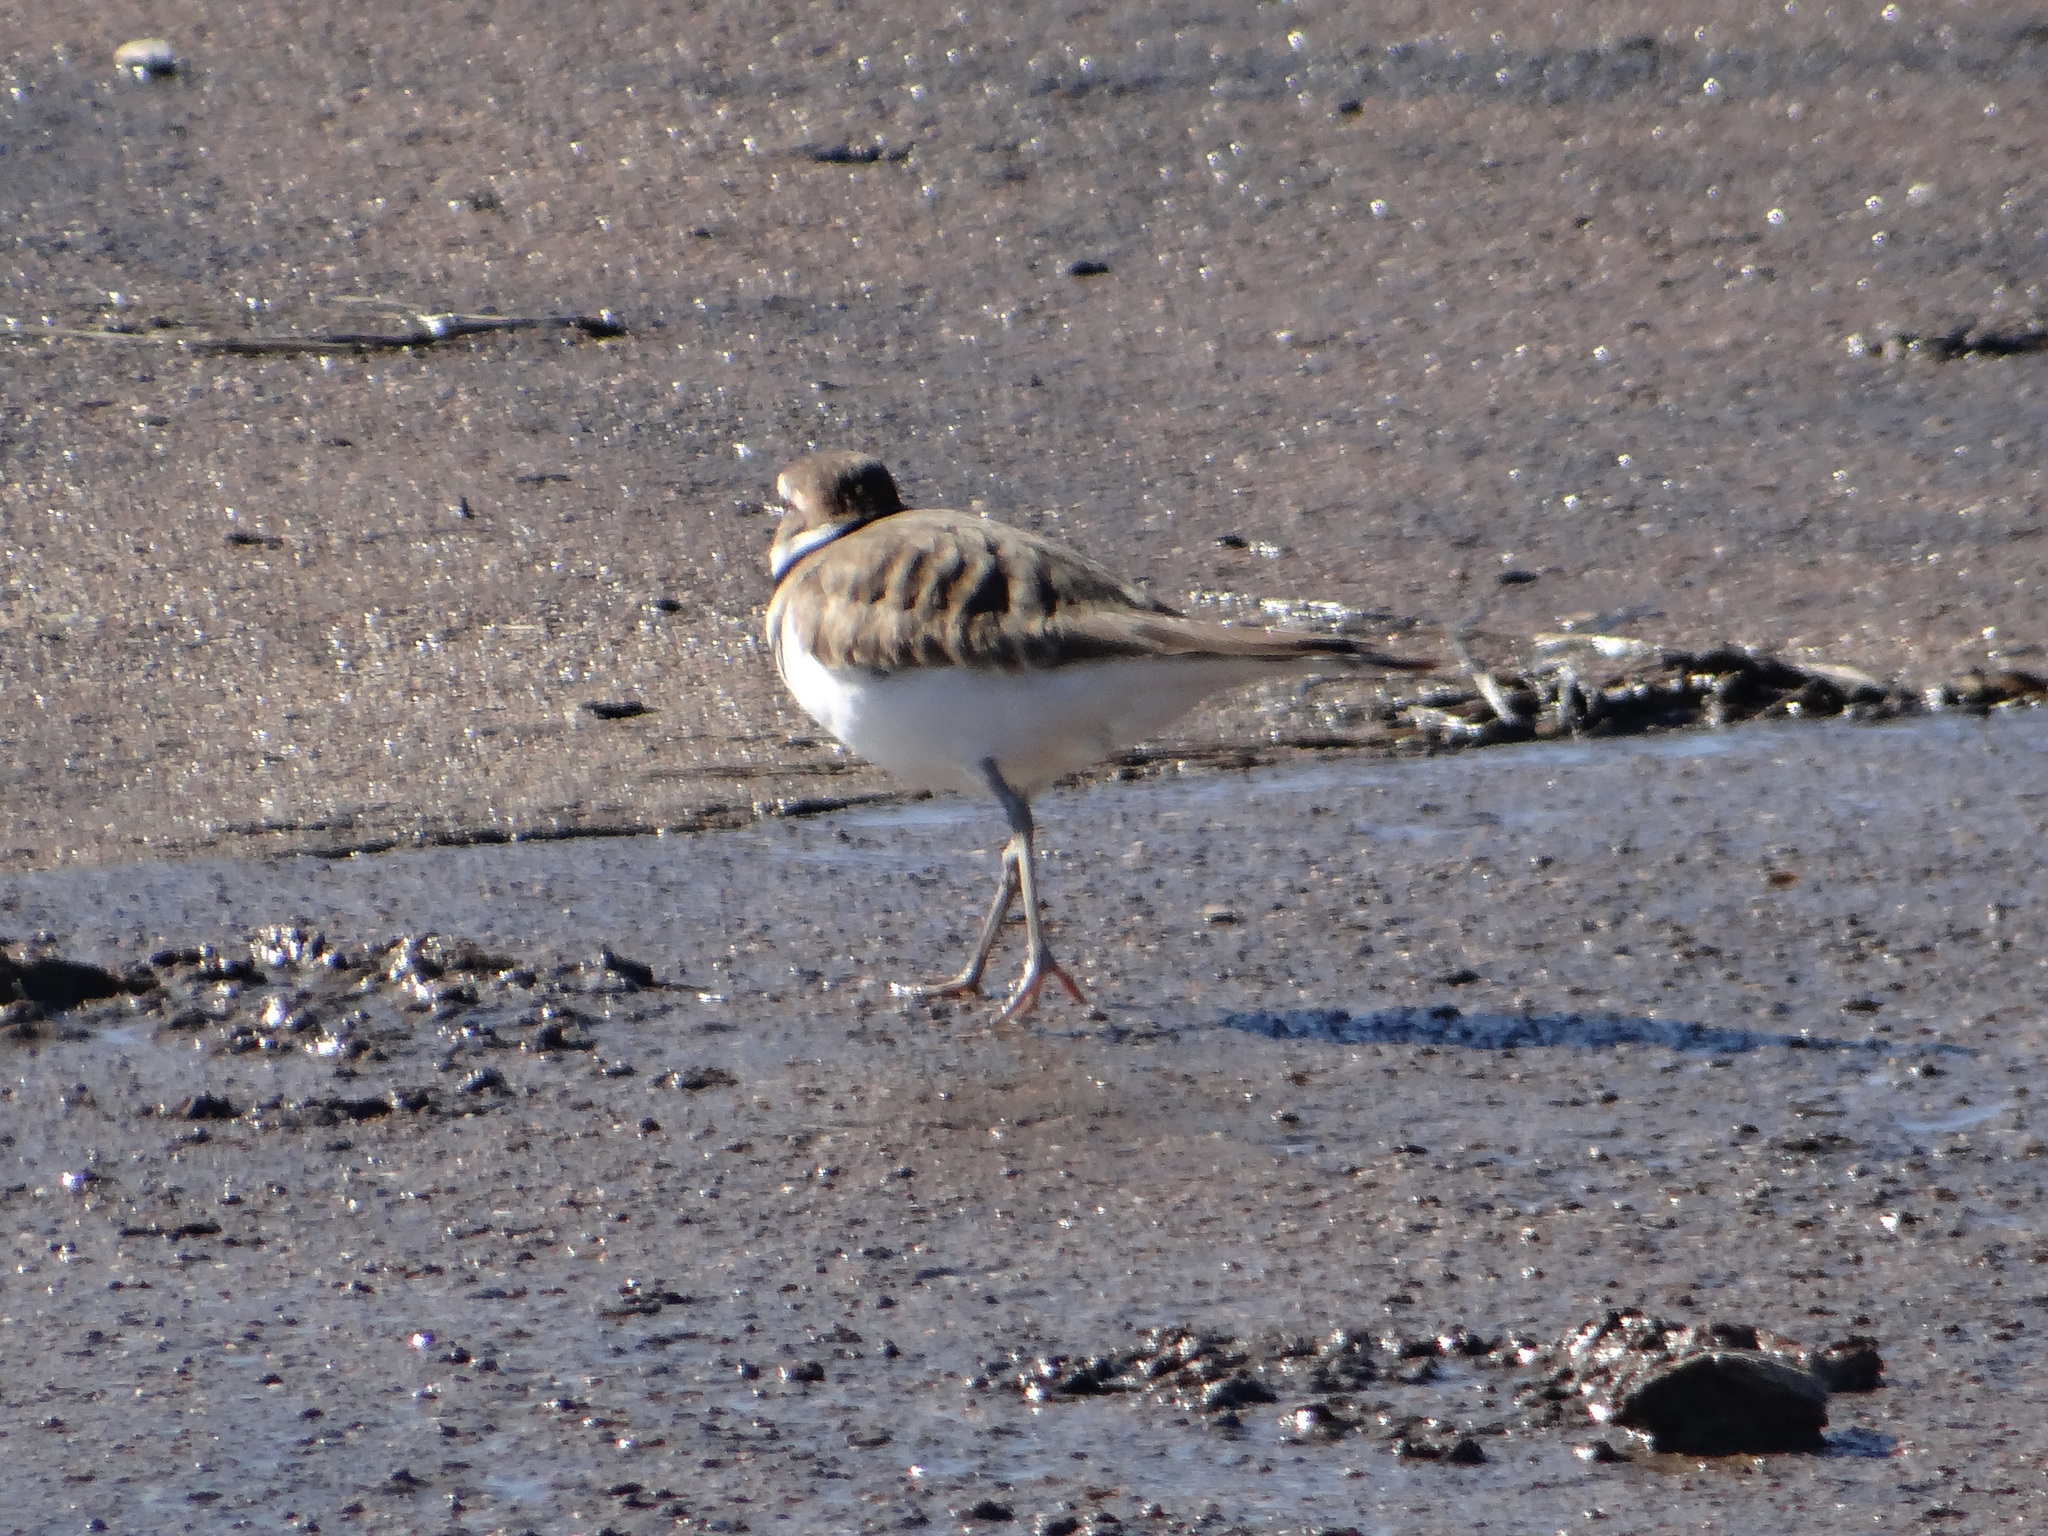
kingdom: Animalia
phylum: Chordata
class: Aves
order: Charadriiformes
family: Charadriidae
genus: Charadrius
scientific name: Charadrius vociferus
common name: Killdeer
